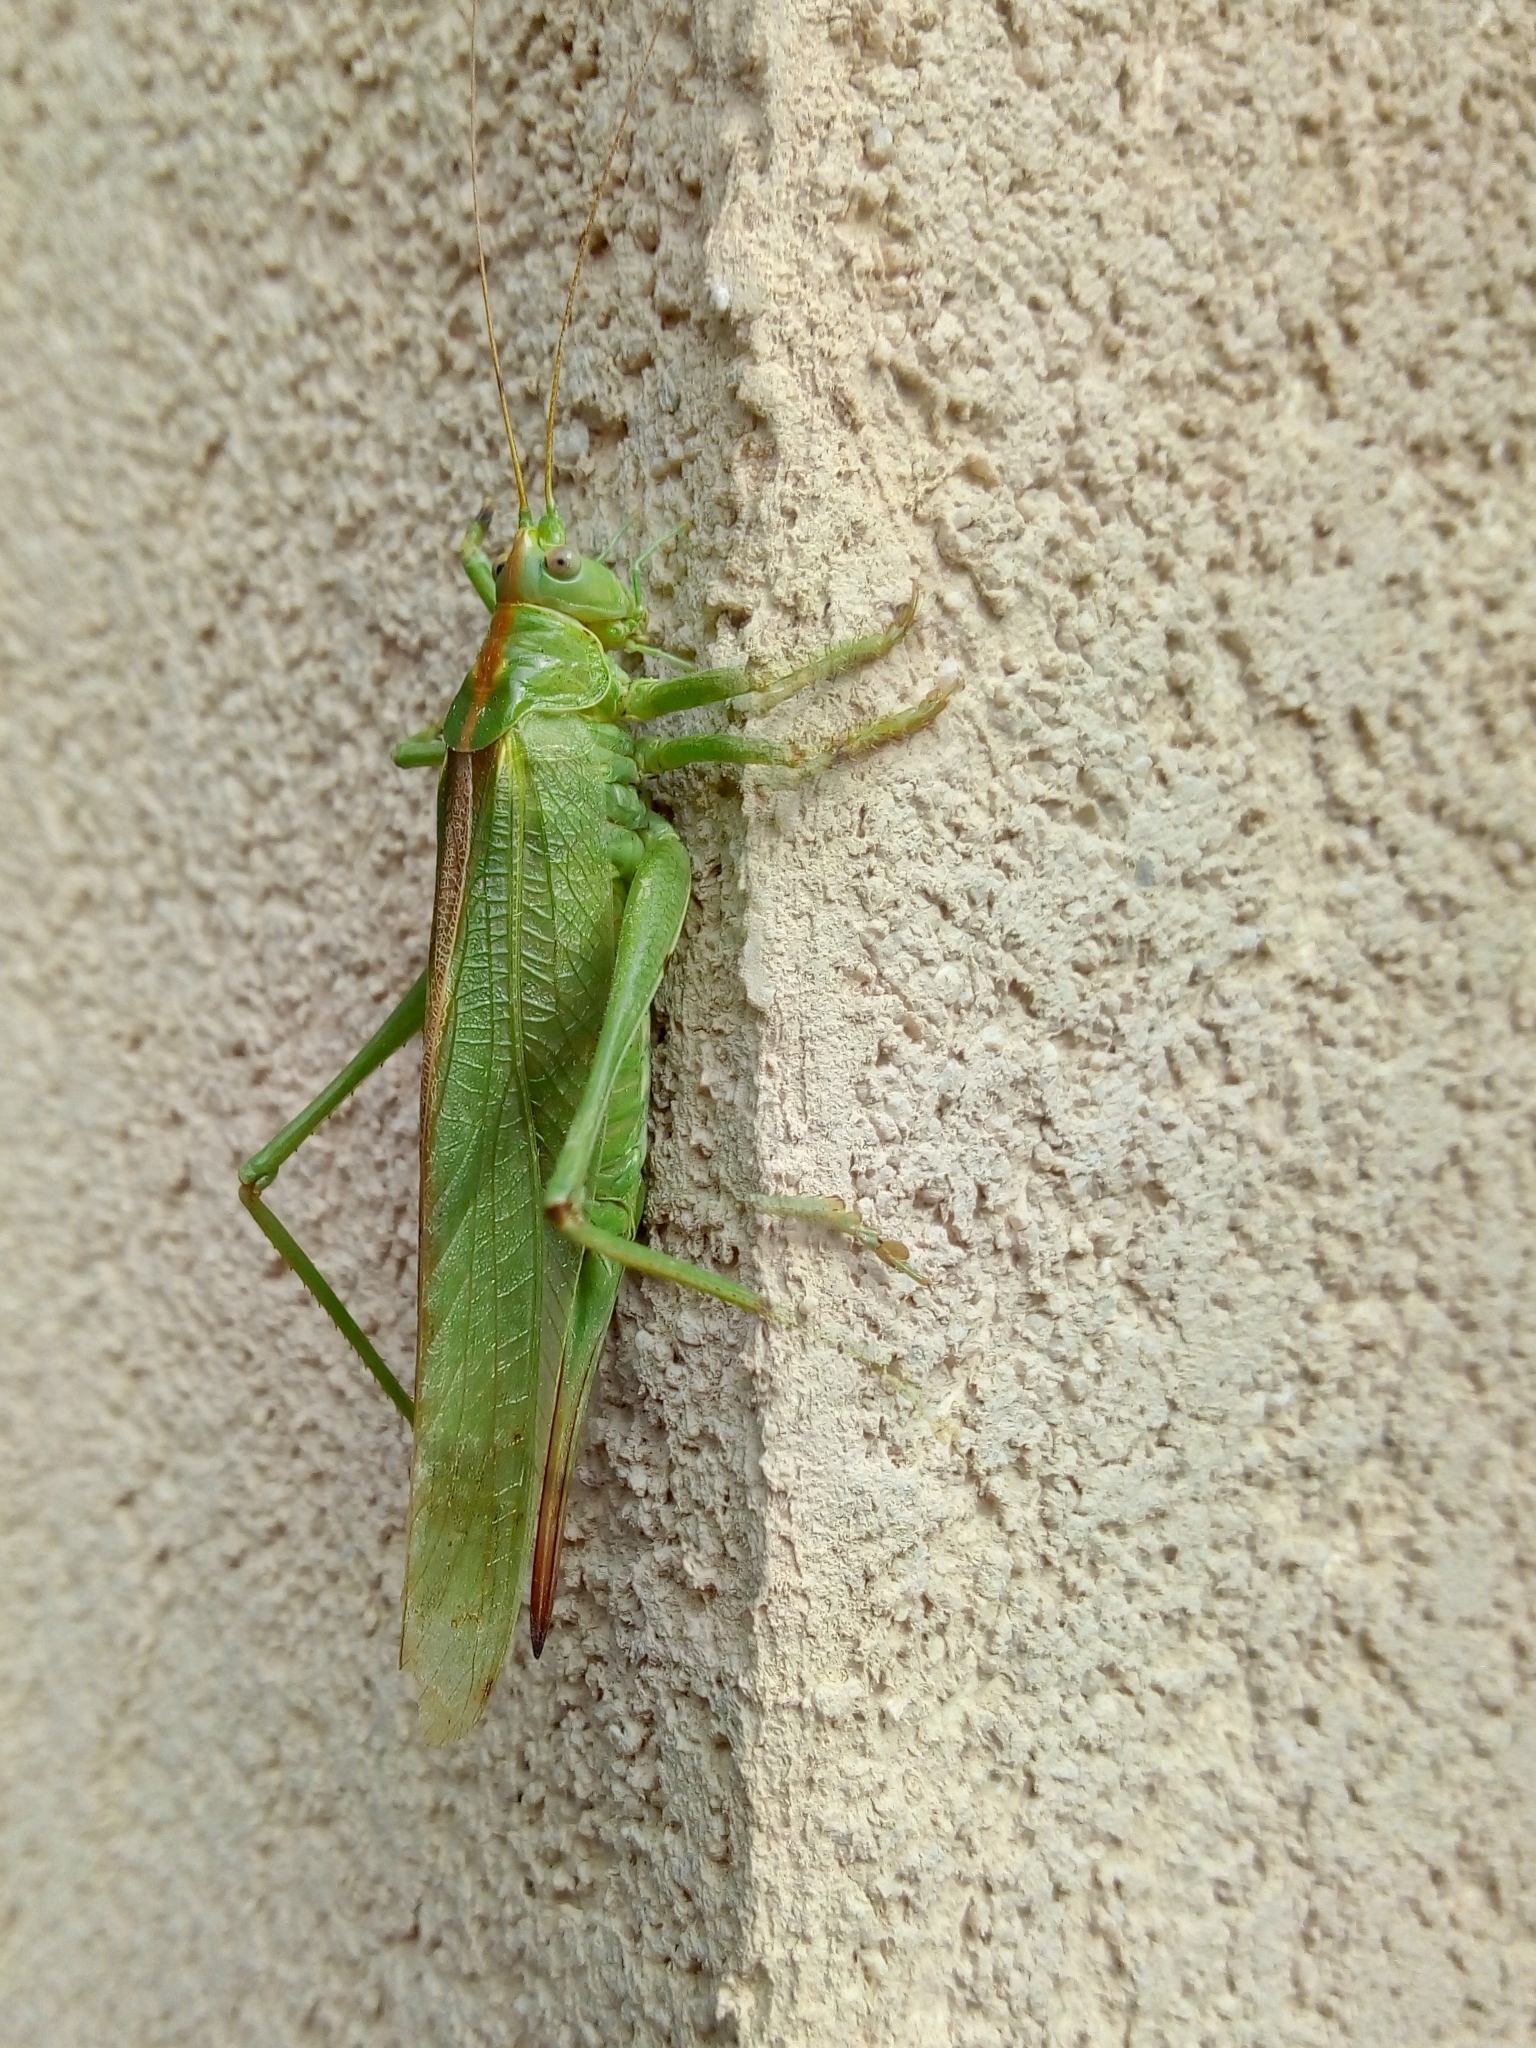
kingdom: Animalia
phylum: Arthropoda
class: Insecta
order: Orthoptera
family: Tettigoniidae
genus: Tettigonia
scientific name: Tettigonia viridissima
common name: Great green bush-cricket
